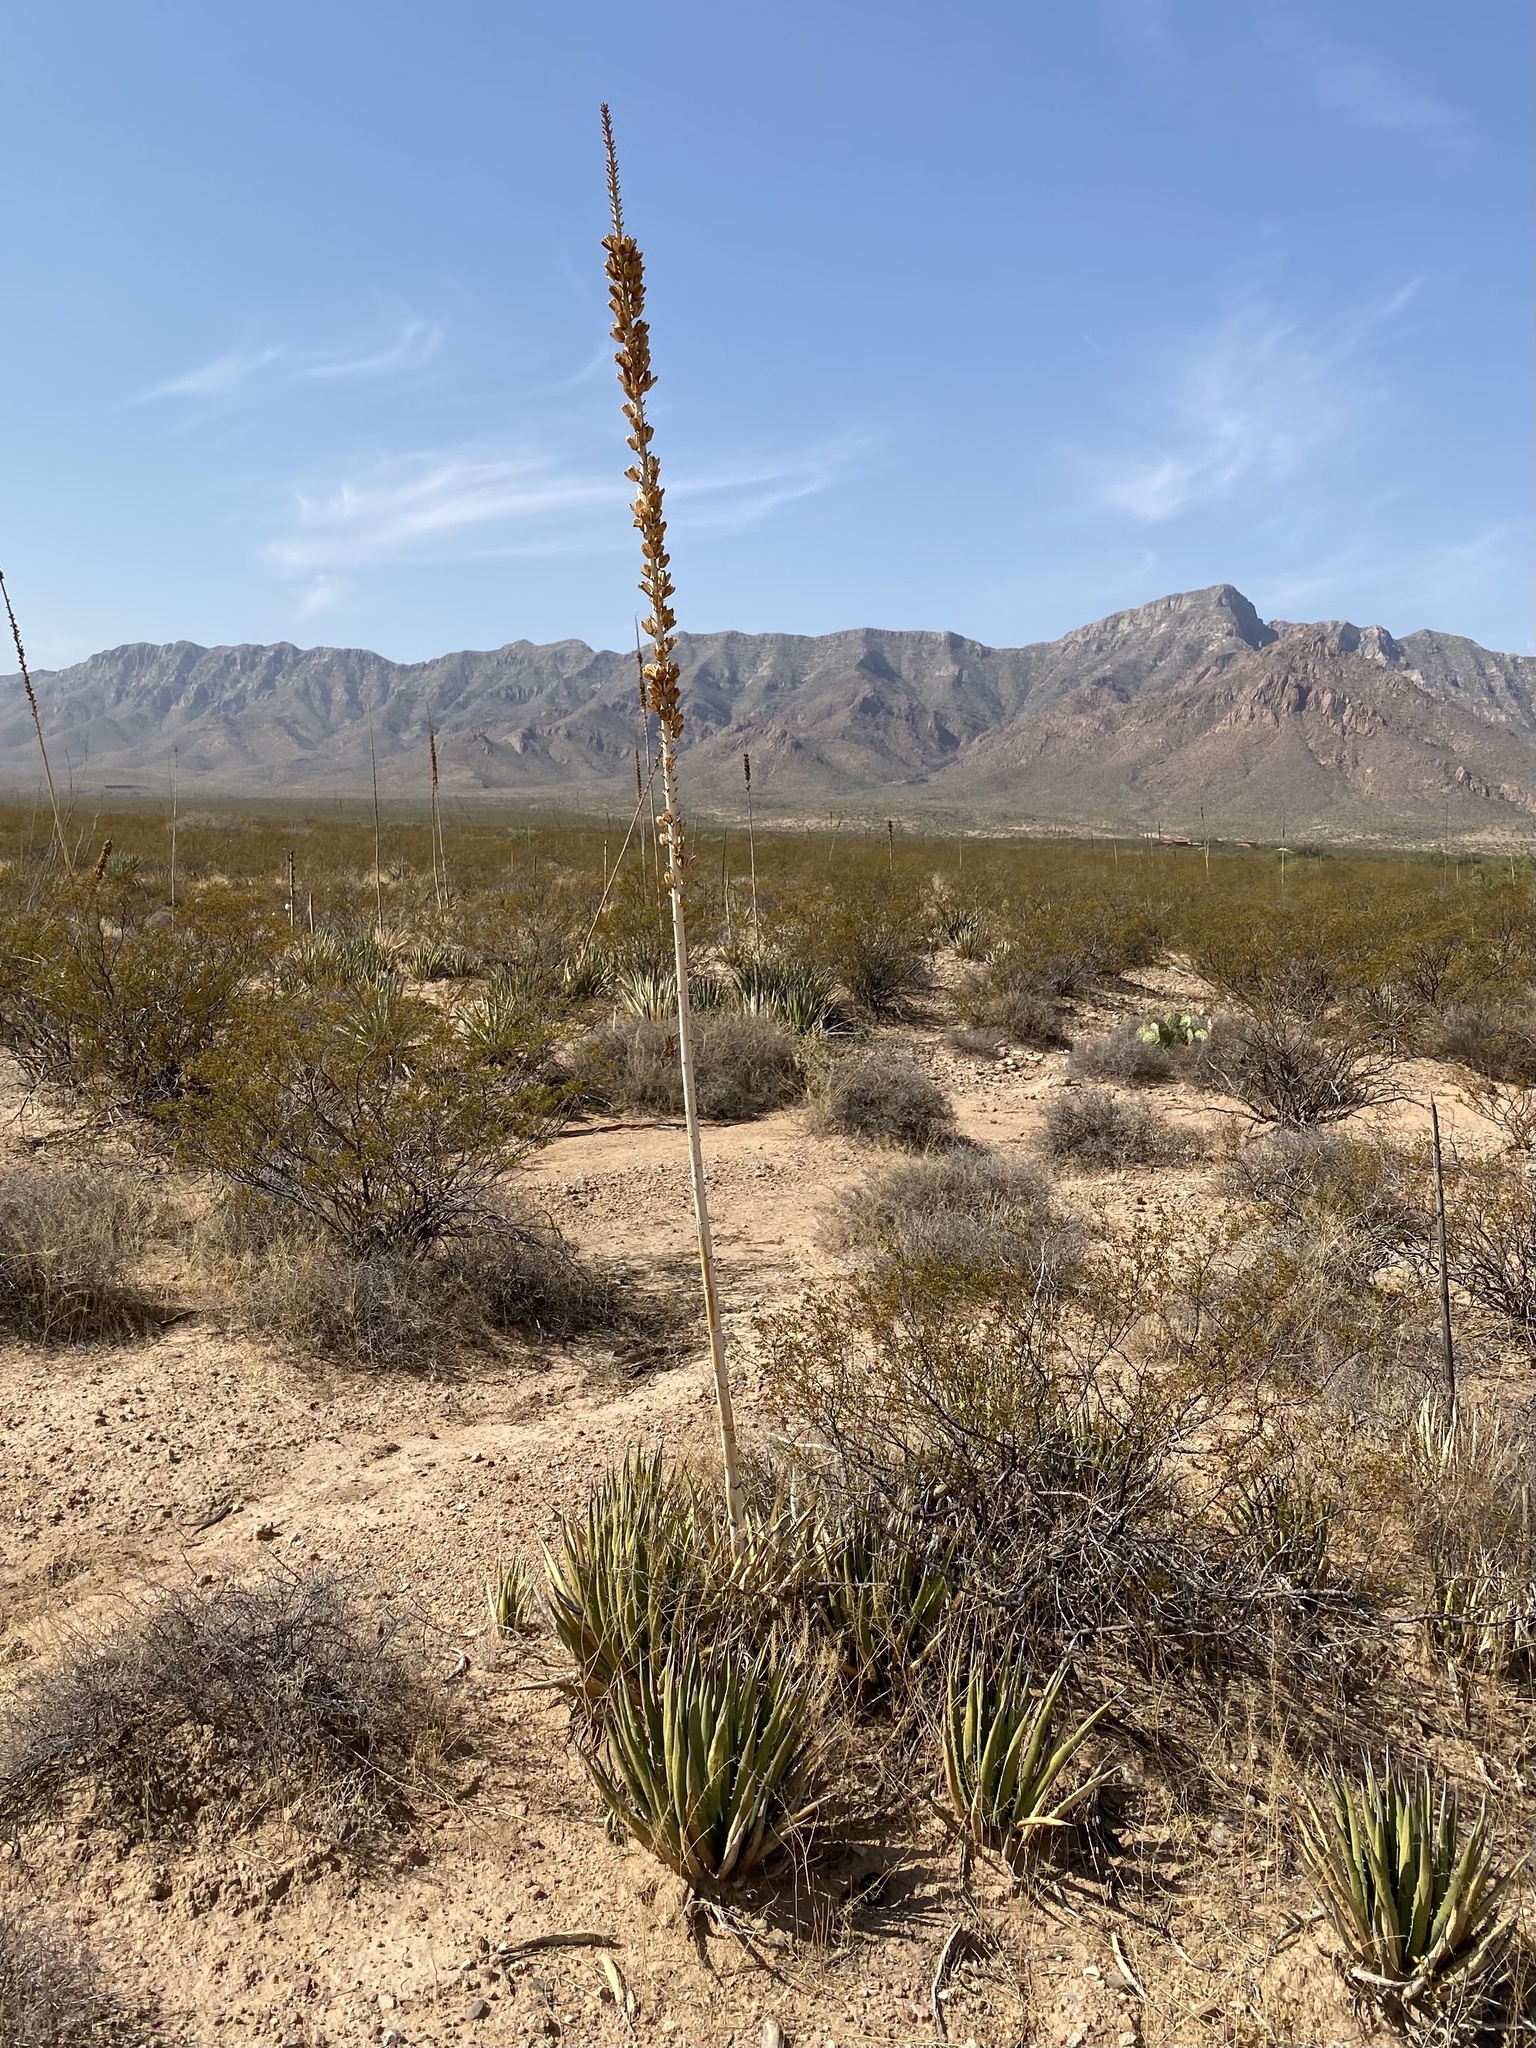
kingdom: Plantae
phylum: Tracheophyta
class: Liliopsida
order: Asparagales
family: Asparagaceae
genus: Agave
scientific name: Agave lechuguilla
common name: Lecheguilla agave
